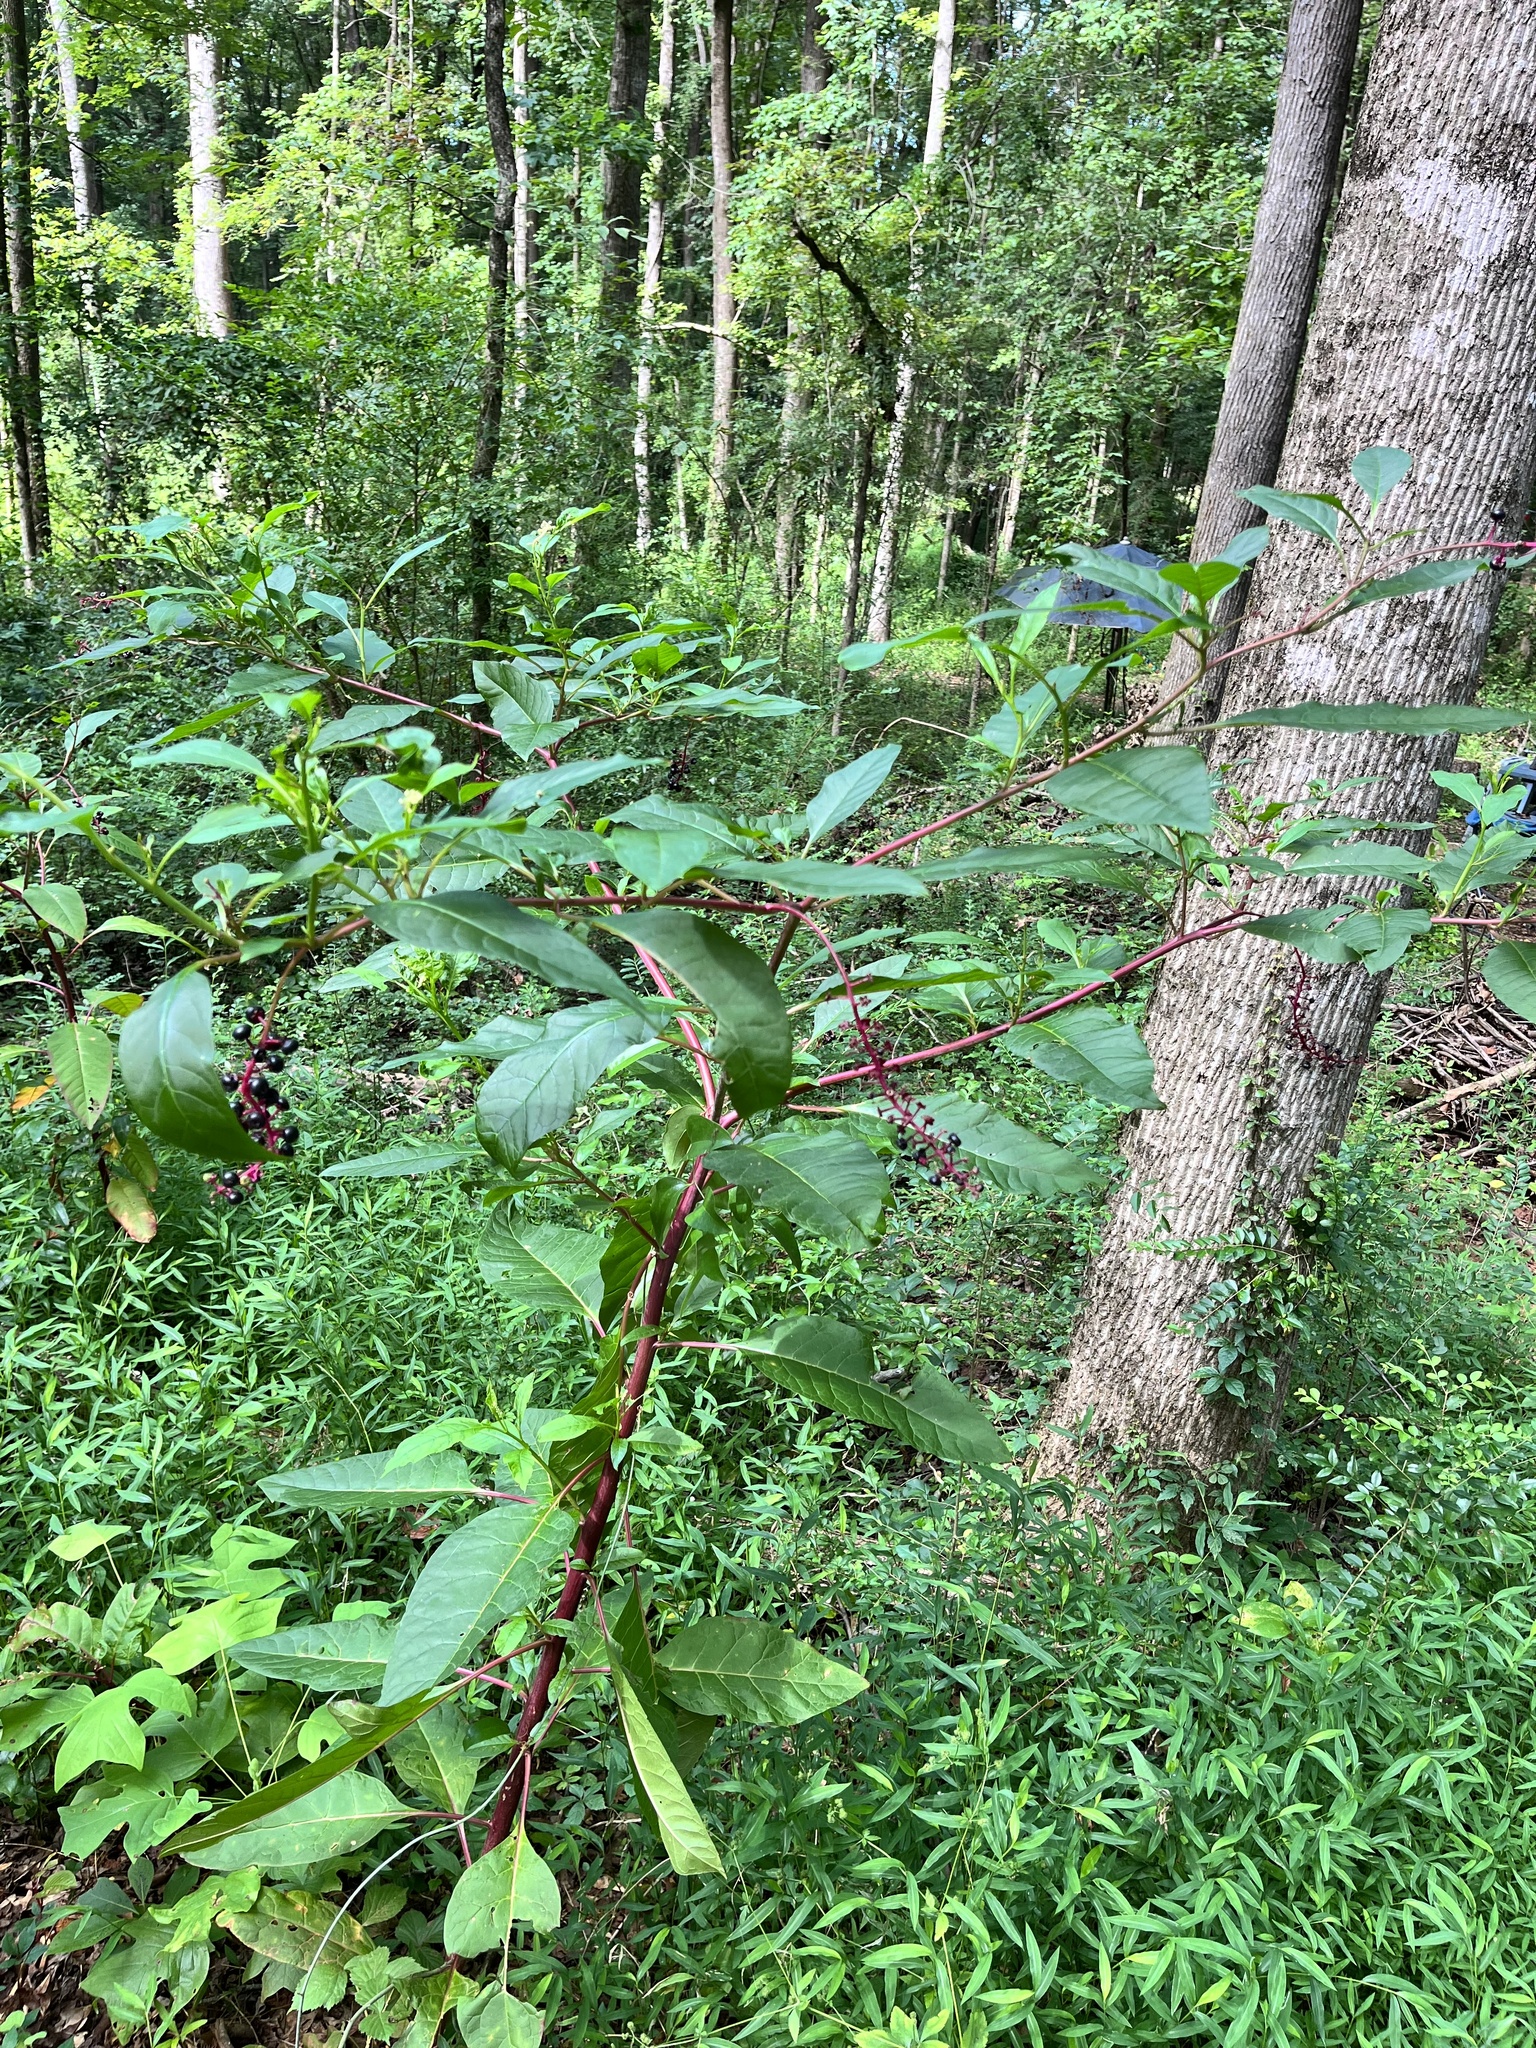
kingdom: Plantae
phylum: Tracheophyta
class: Magnoliopsida
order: Caryophyllales
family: Phytolaccaceae
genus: Phytolacca
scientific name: Phytolacca americana
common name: American pokeweed
